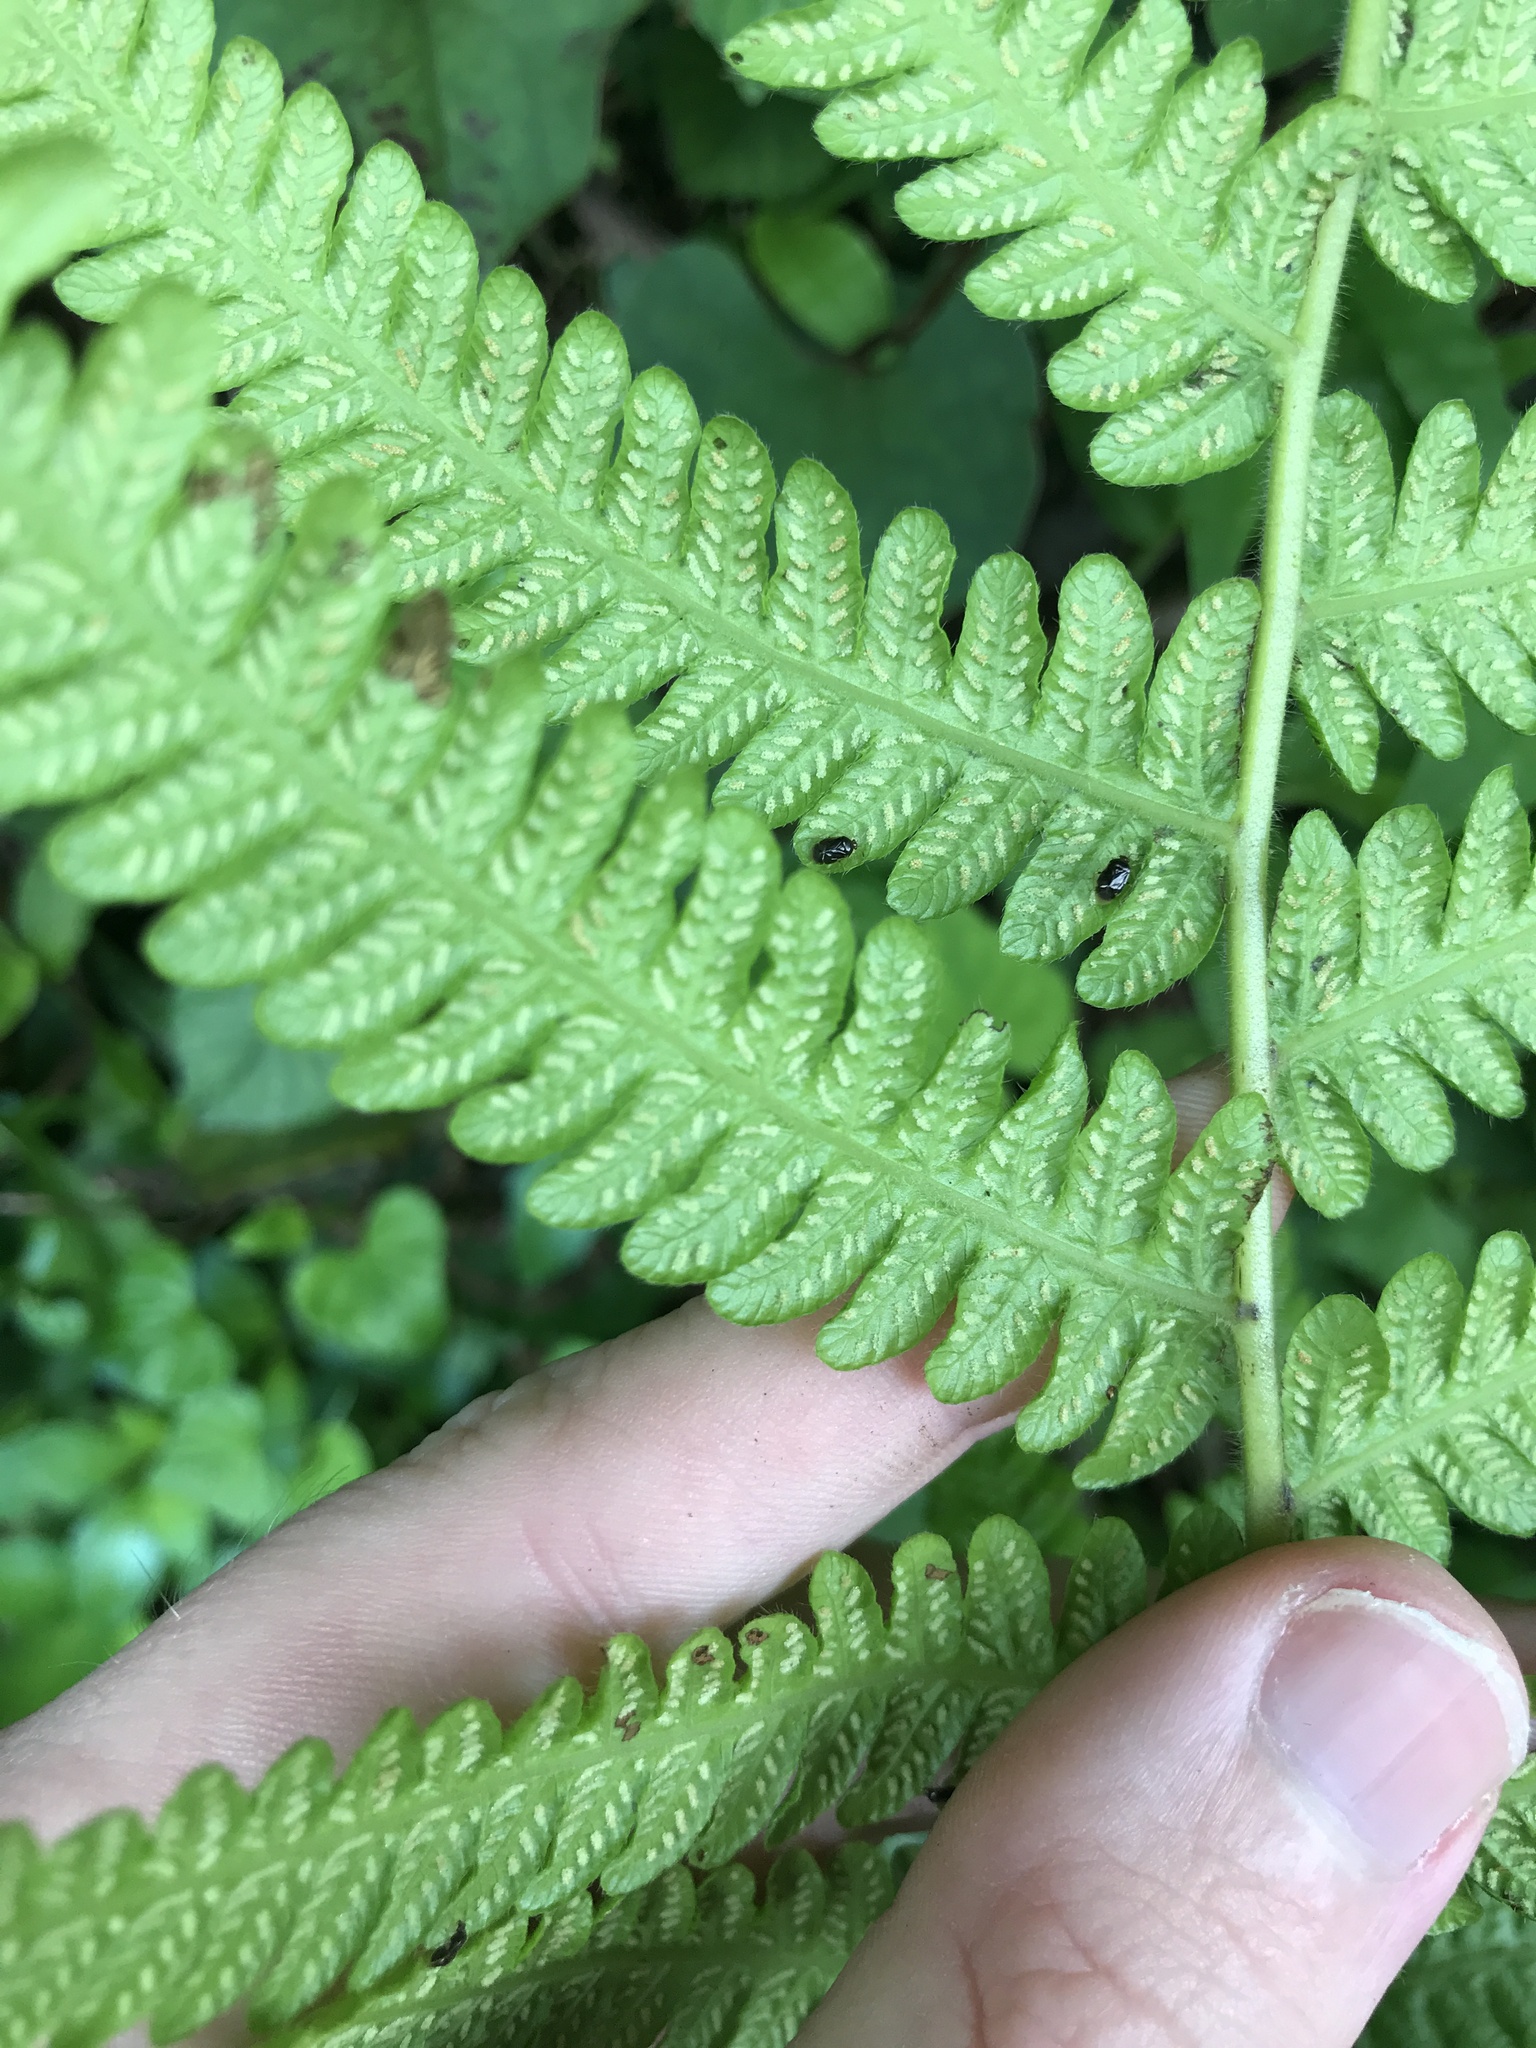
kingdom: Plantae
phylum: Tracheophyta
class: Polypodiopsida
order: Polypodiales
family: Thelypteridaceae
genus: Leptogramma
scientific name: Leptogramma mollissima
